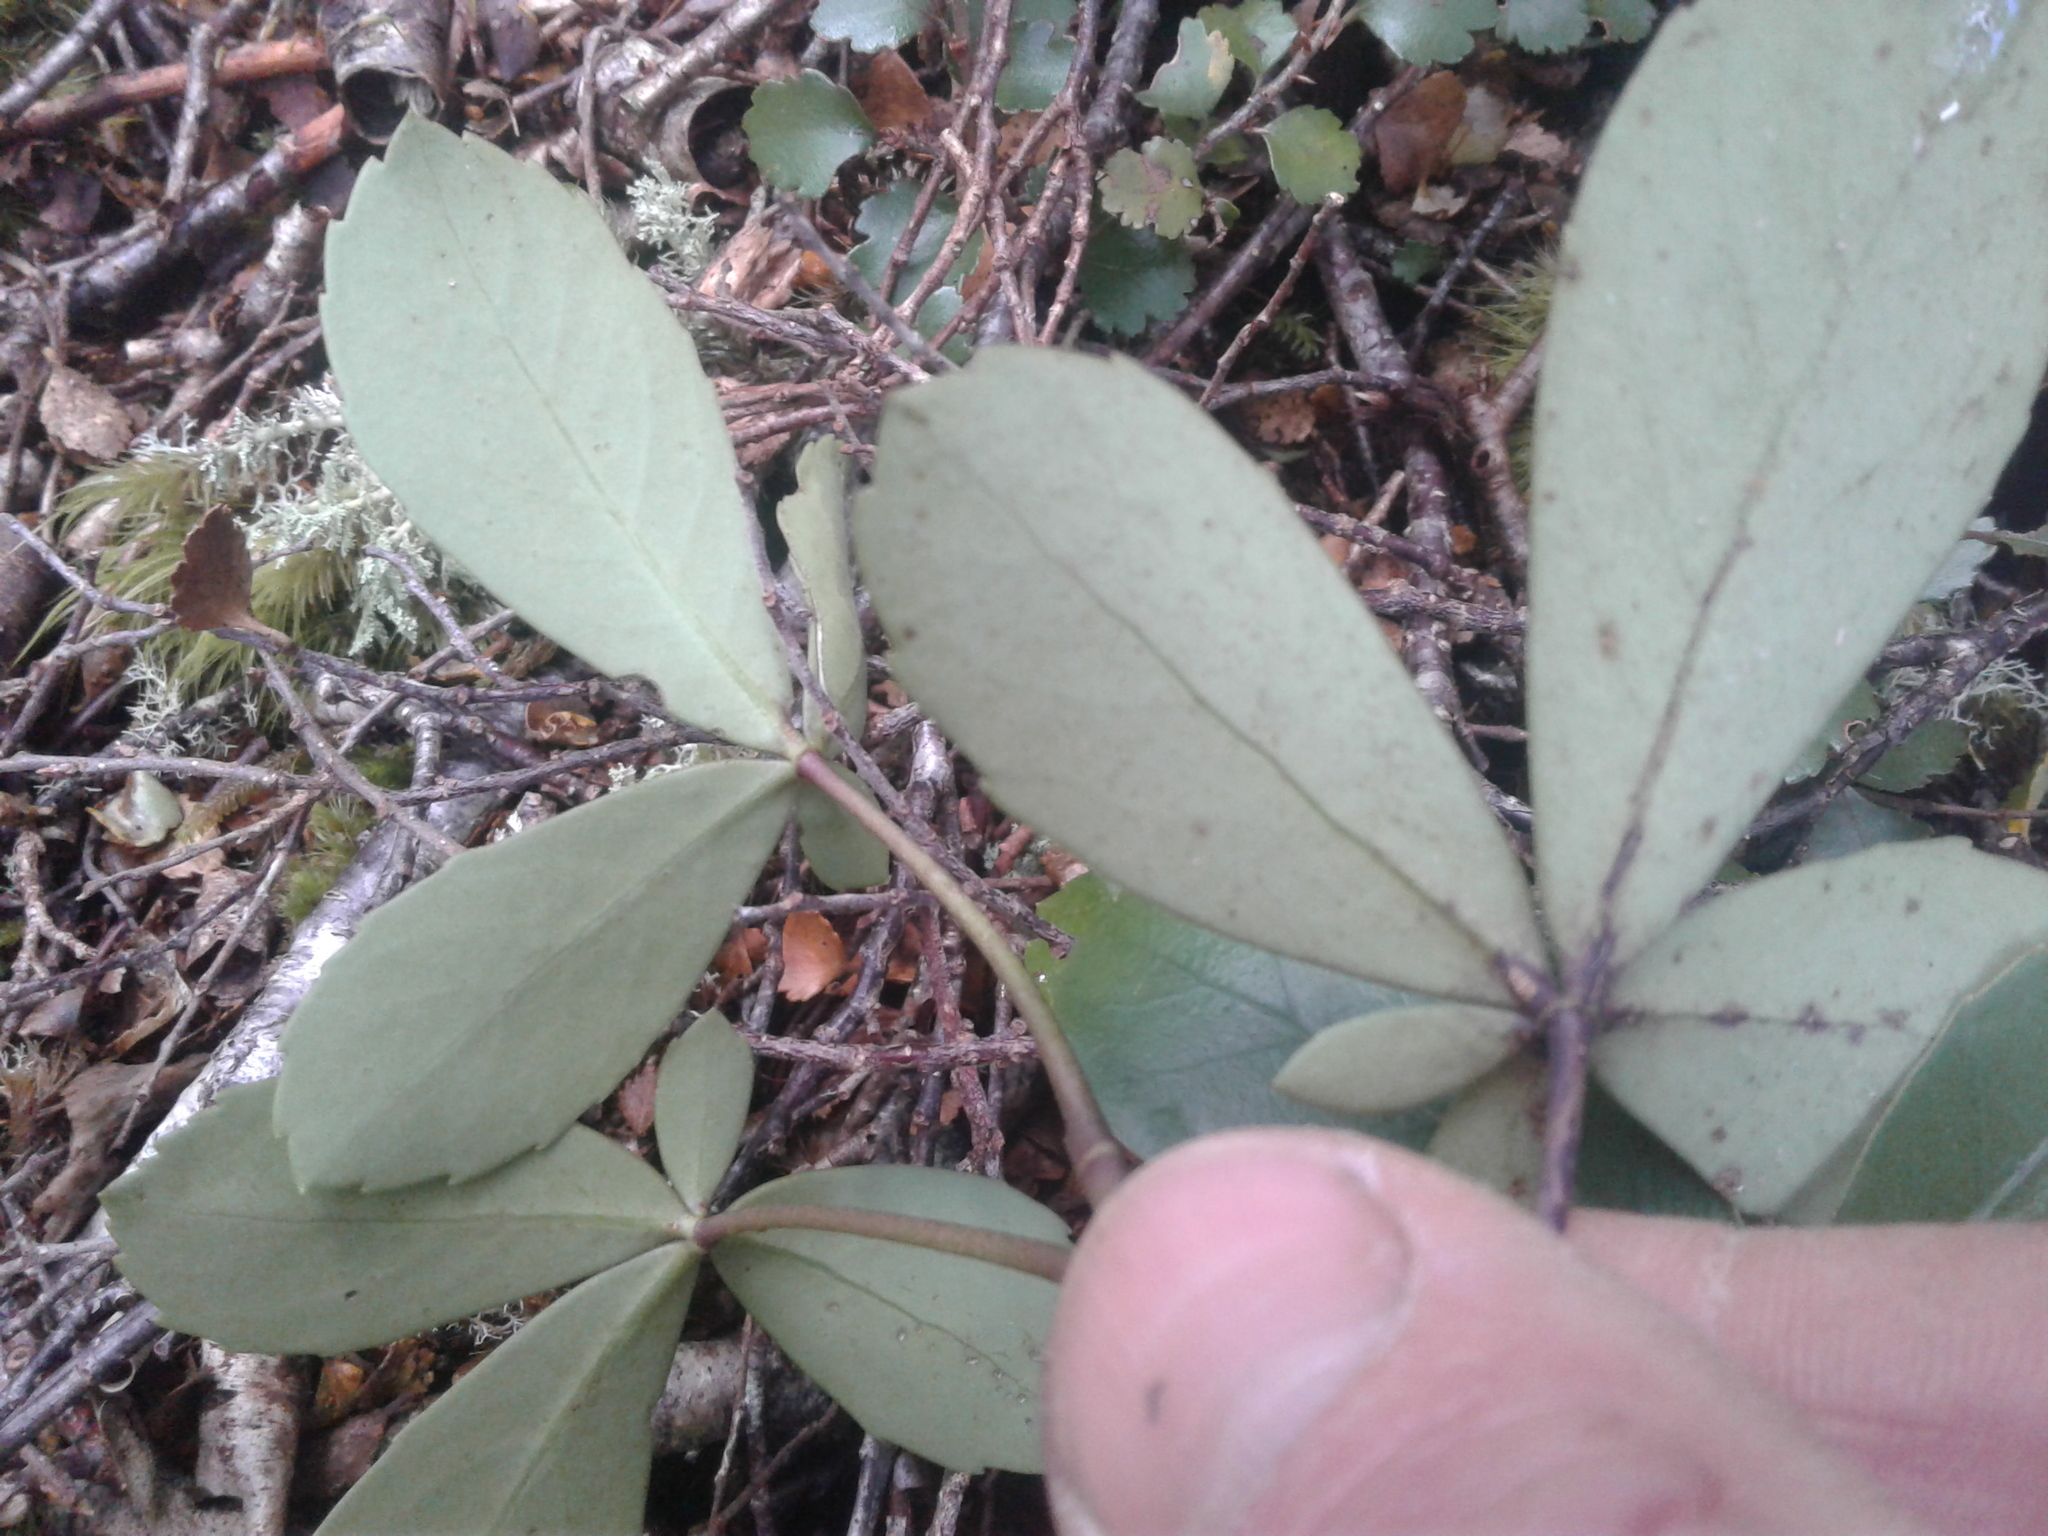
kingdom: Plantae
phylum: Tracheophyta
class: Magnoliopsida
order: Apiales
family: Araliaceae
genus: Neopanax
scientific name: Neopanax colensoi
